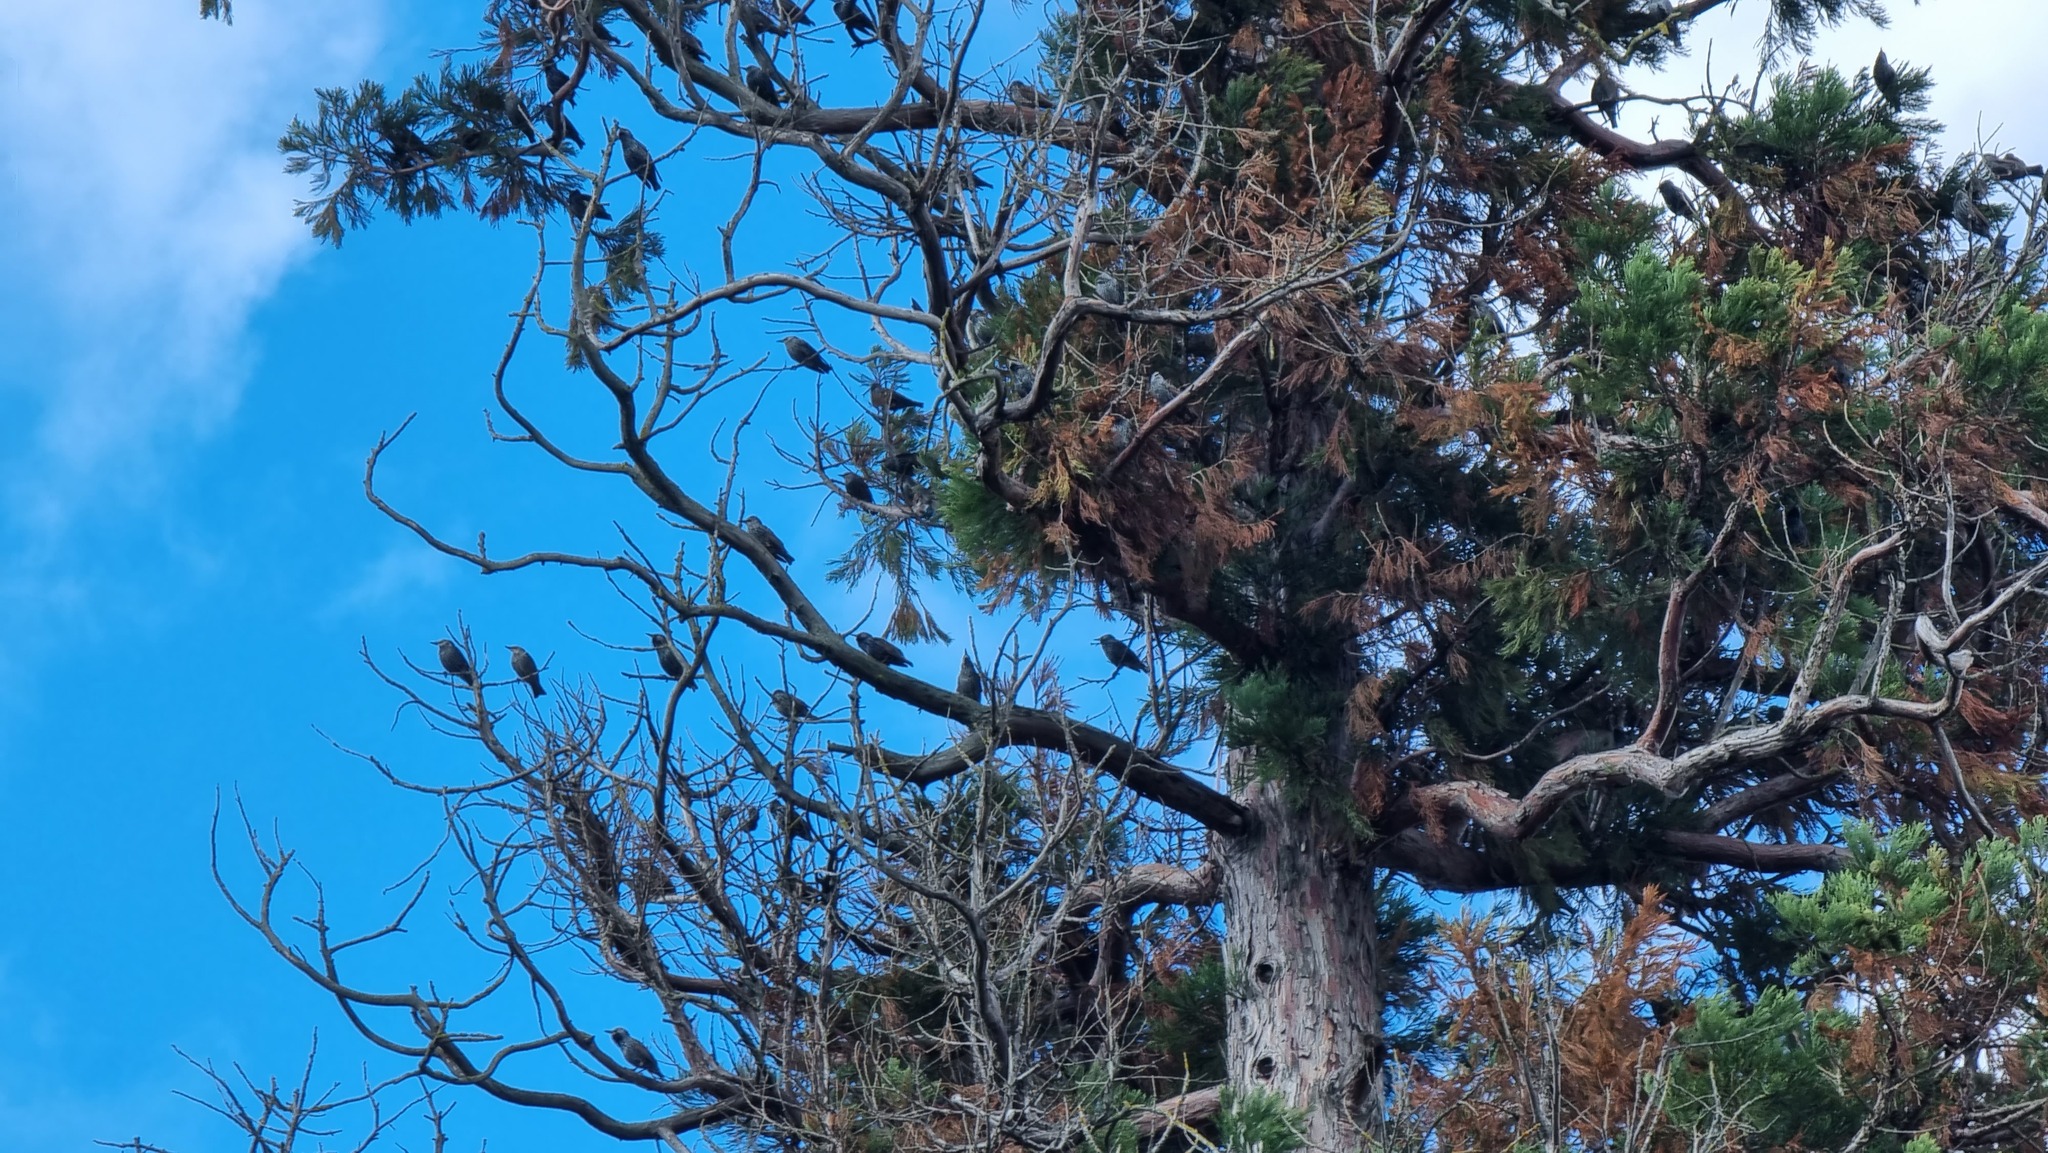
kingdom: Animalia
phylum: Chordata
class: Aves
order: Passeriformes
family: Sturnidae
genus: Sturnus
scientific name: Sturnus vulgaris
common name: Common starling
